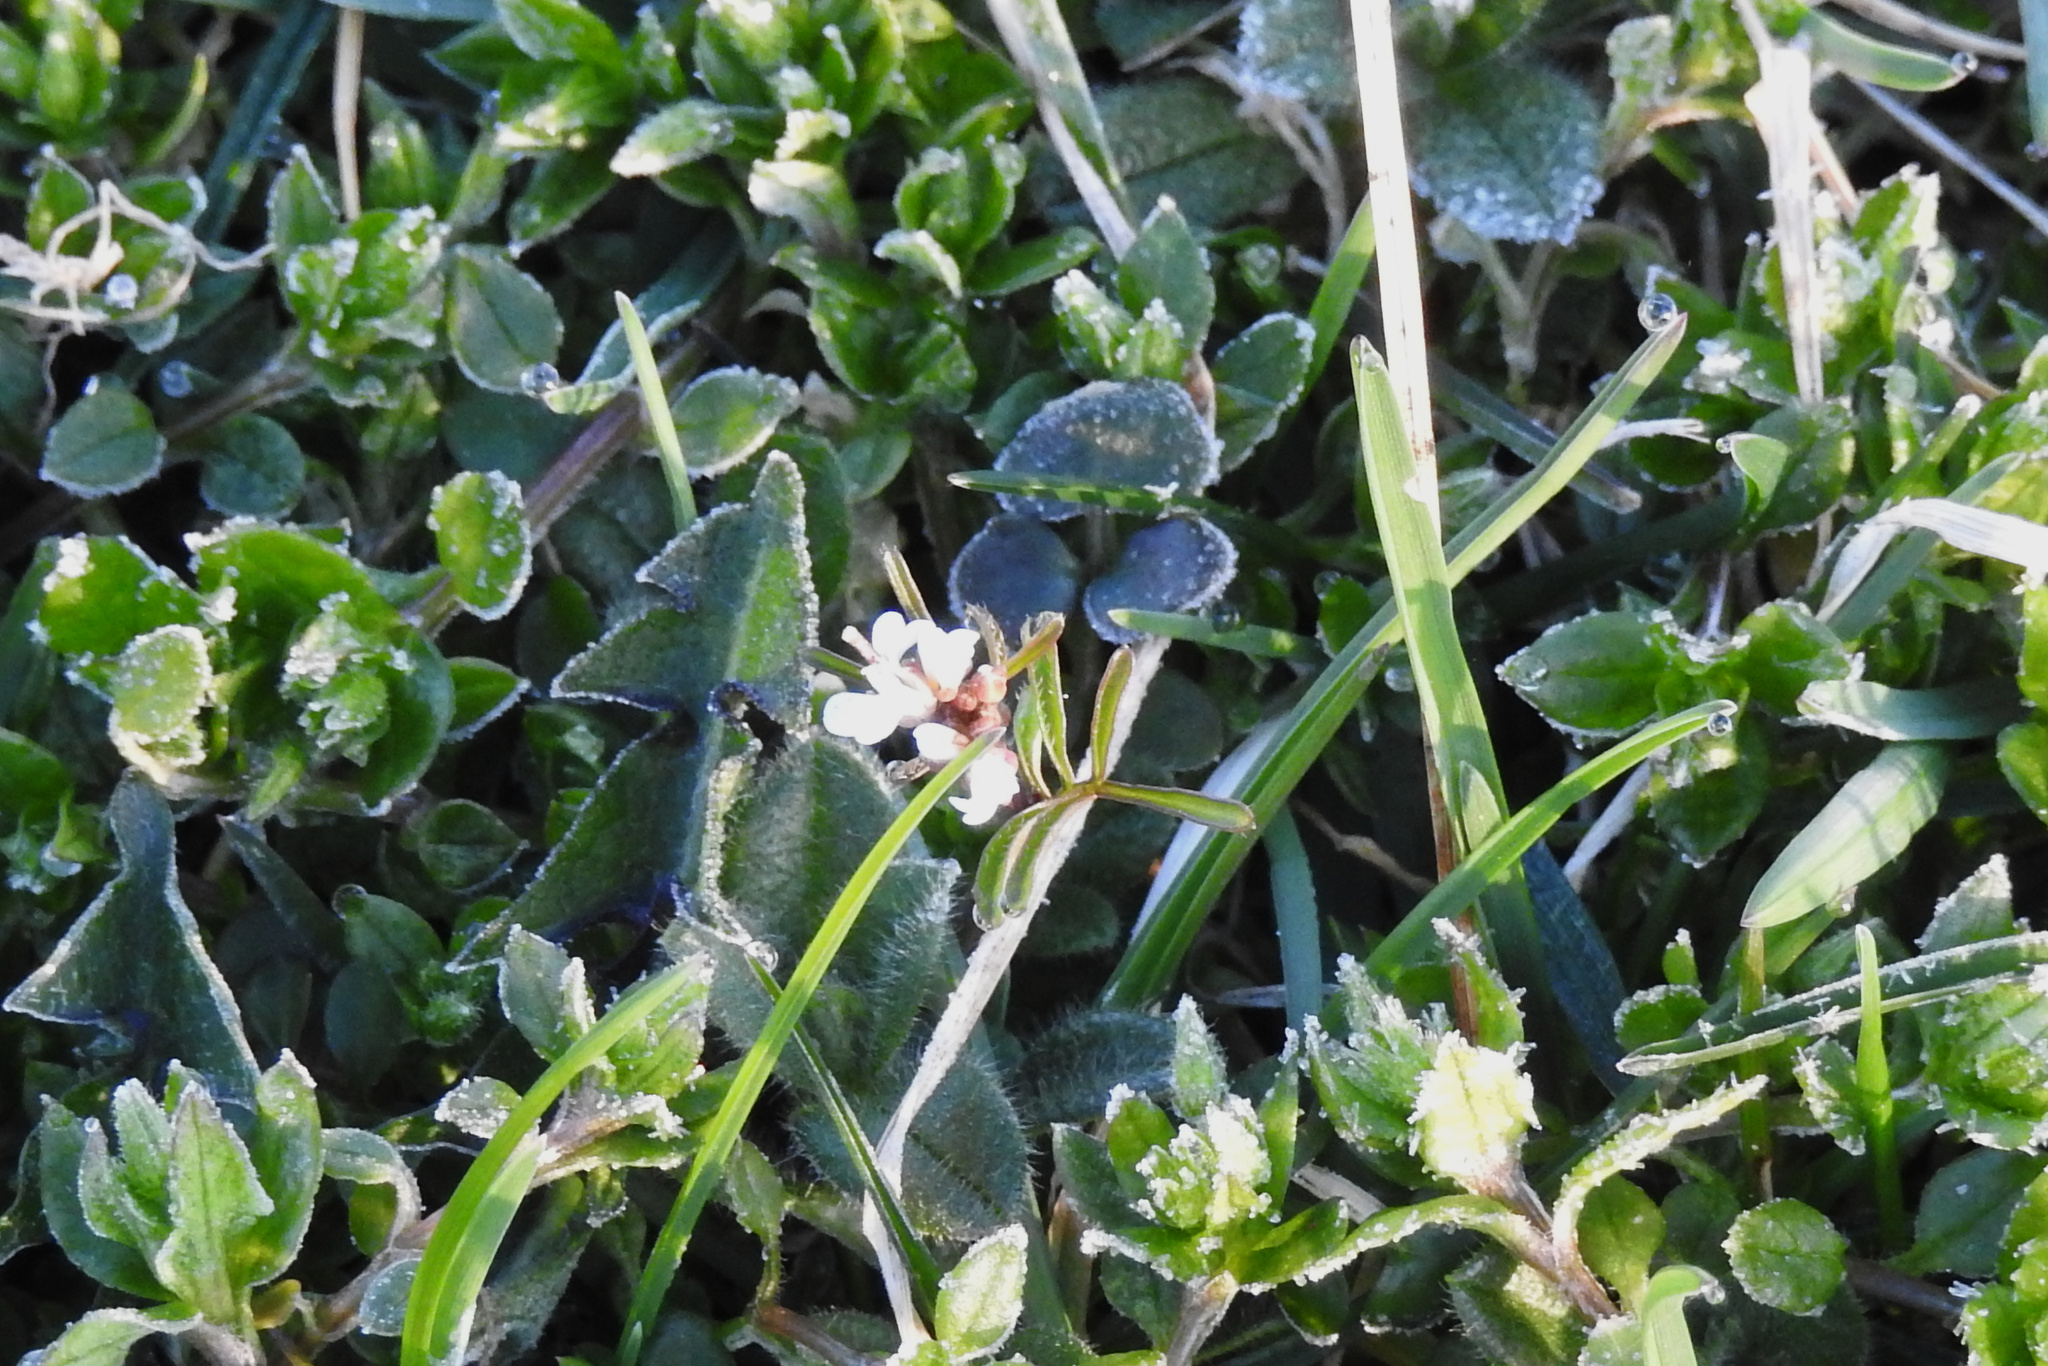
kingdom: Plantae
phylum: Tracheophyta
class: Magnoliopsida
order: Brassicales
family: Brassicaceae
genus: Cardamine
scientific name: Cardamine hirsuta
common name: Hairy bittercress
